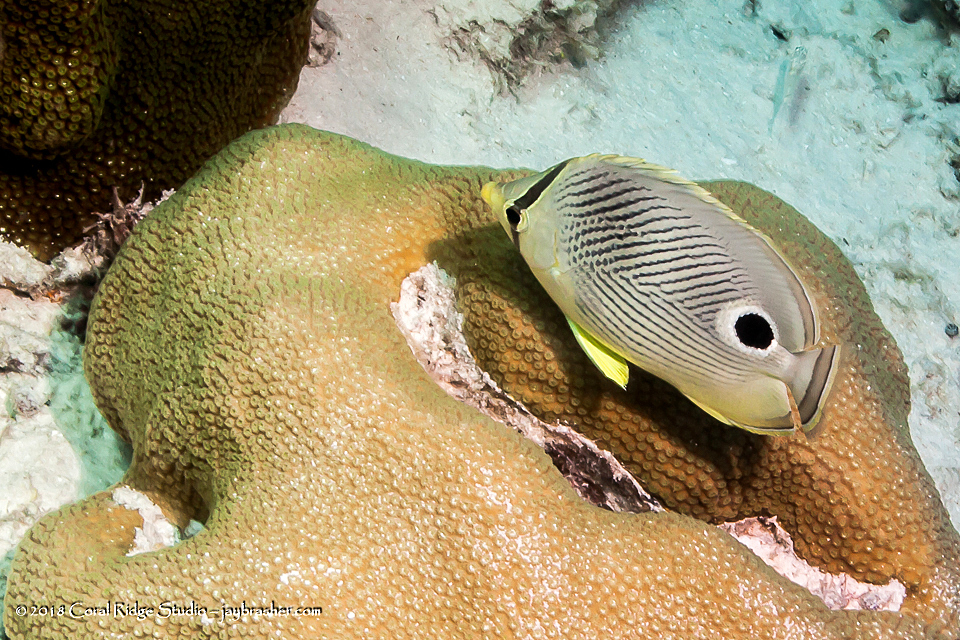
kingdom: Animalia
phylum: Chordata
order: Perciformes
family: Chaetodontidae
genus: Chaetodon
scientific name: Chaetodon capistratus
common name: Kete
